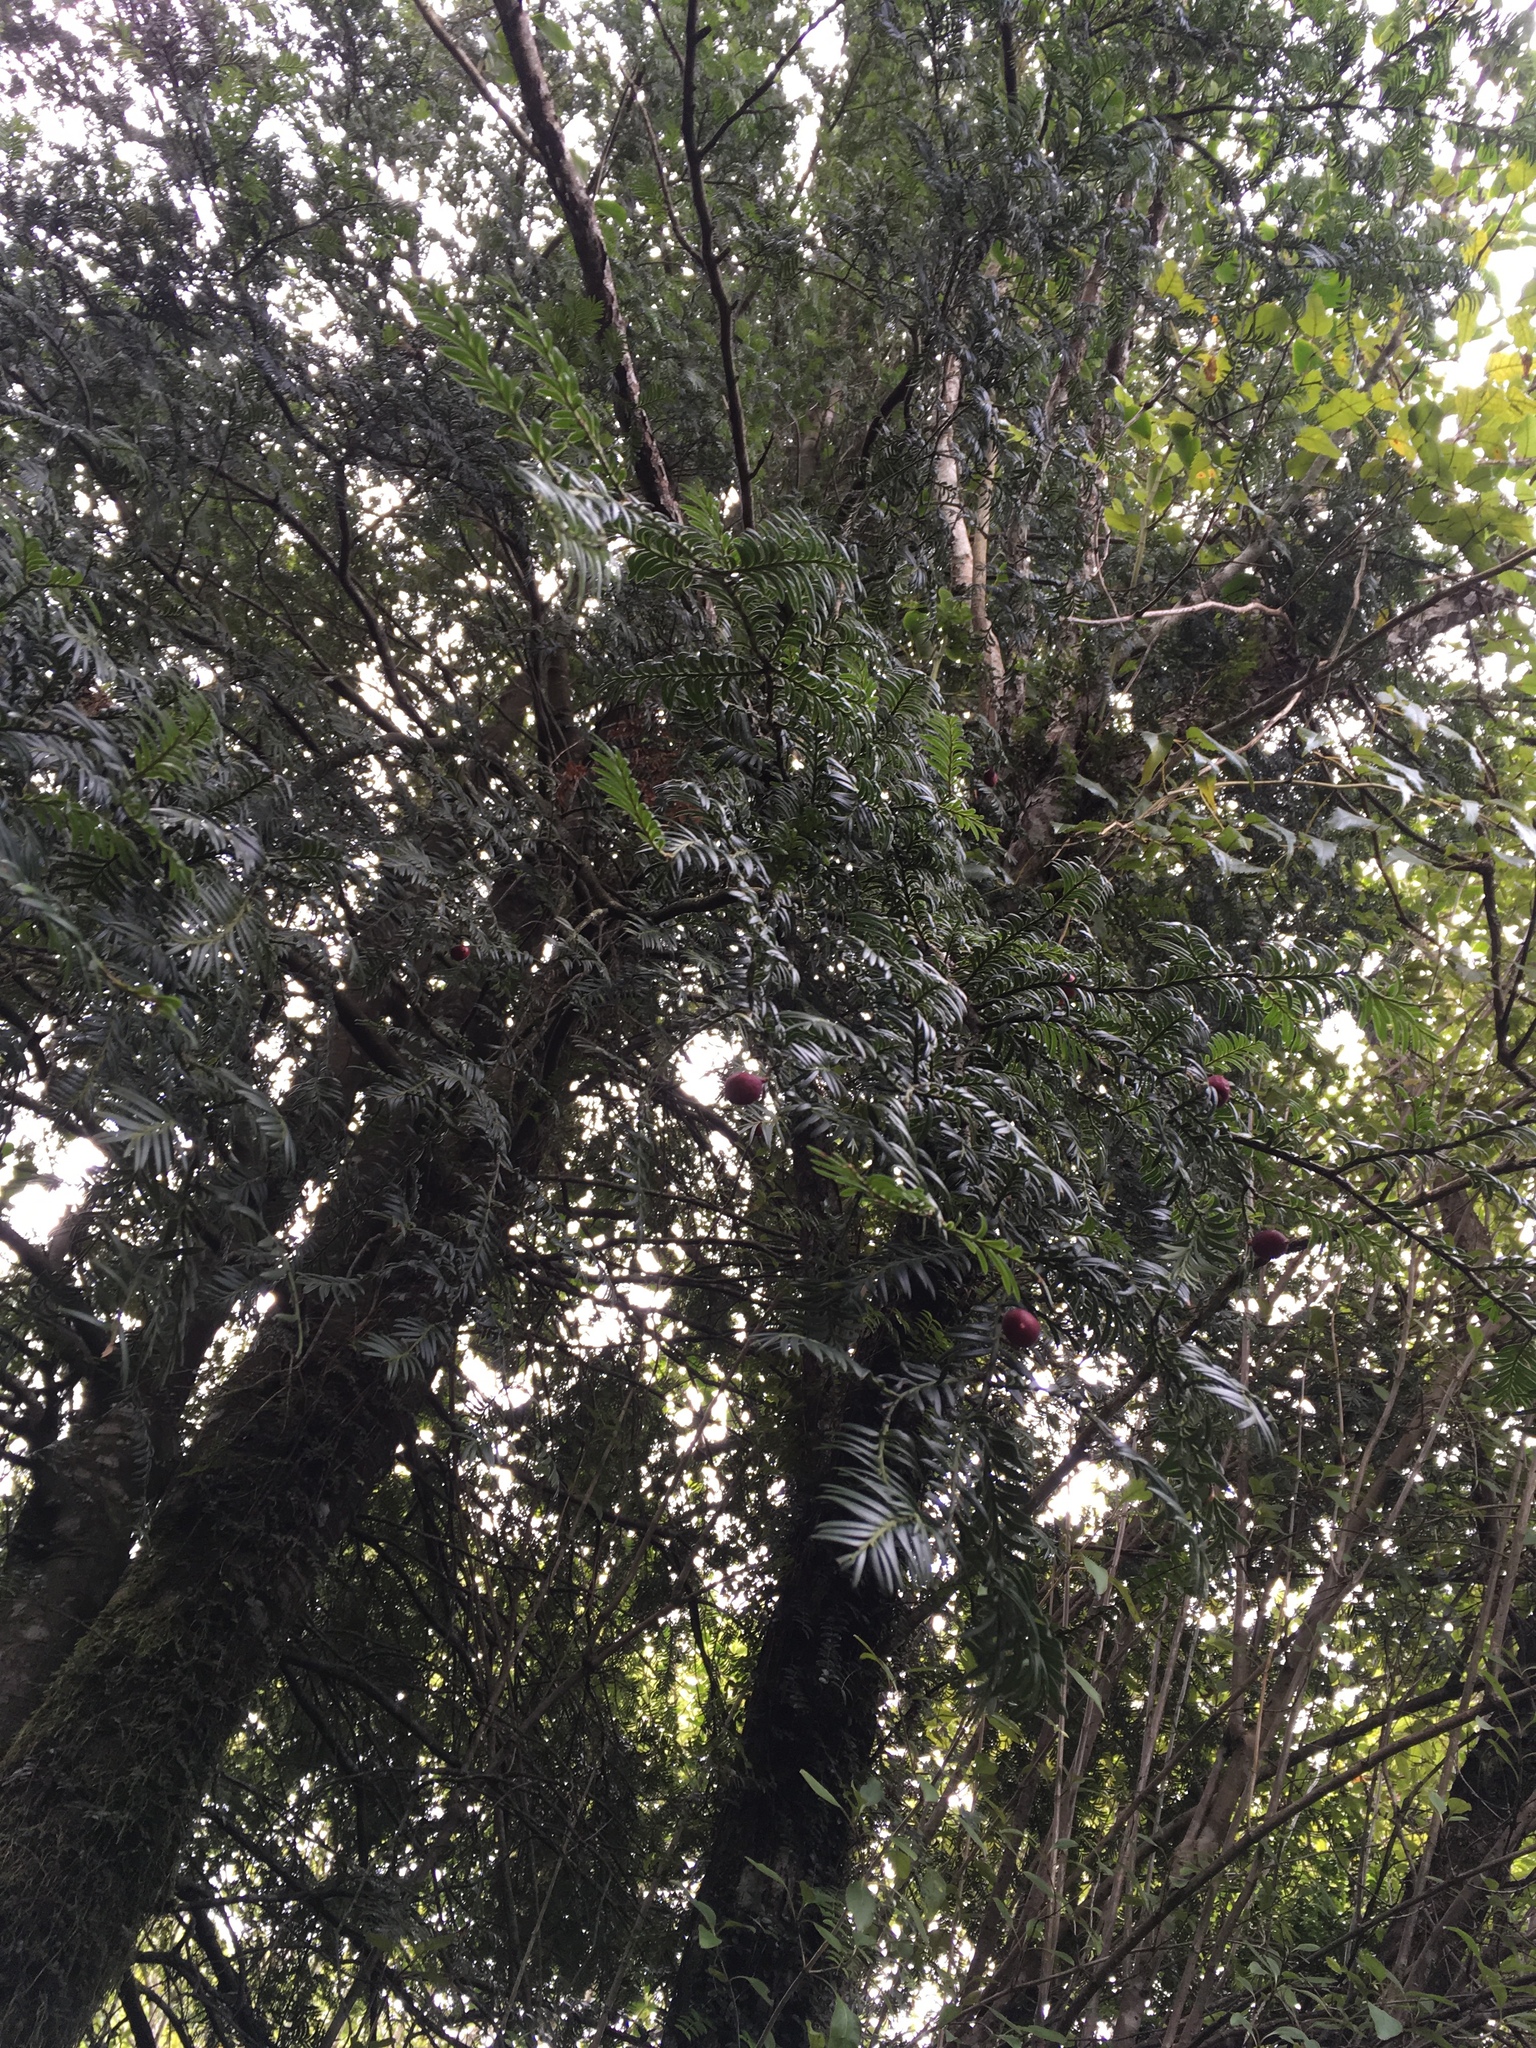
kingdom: Plantae
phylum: Tracheophyta
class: Pinopsida
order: Pinales
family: Podocarpaceae
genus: Prumnopitys
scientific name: Prumnopitys ferruginea
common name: Brown pine
